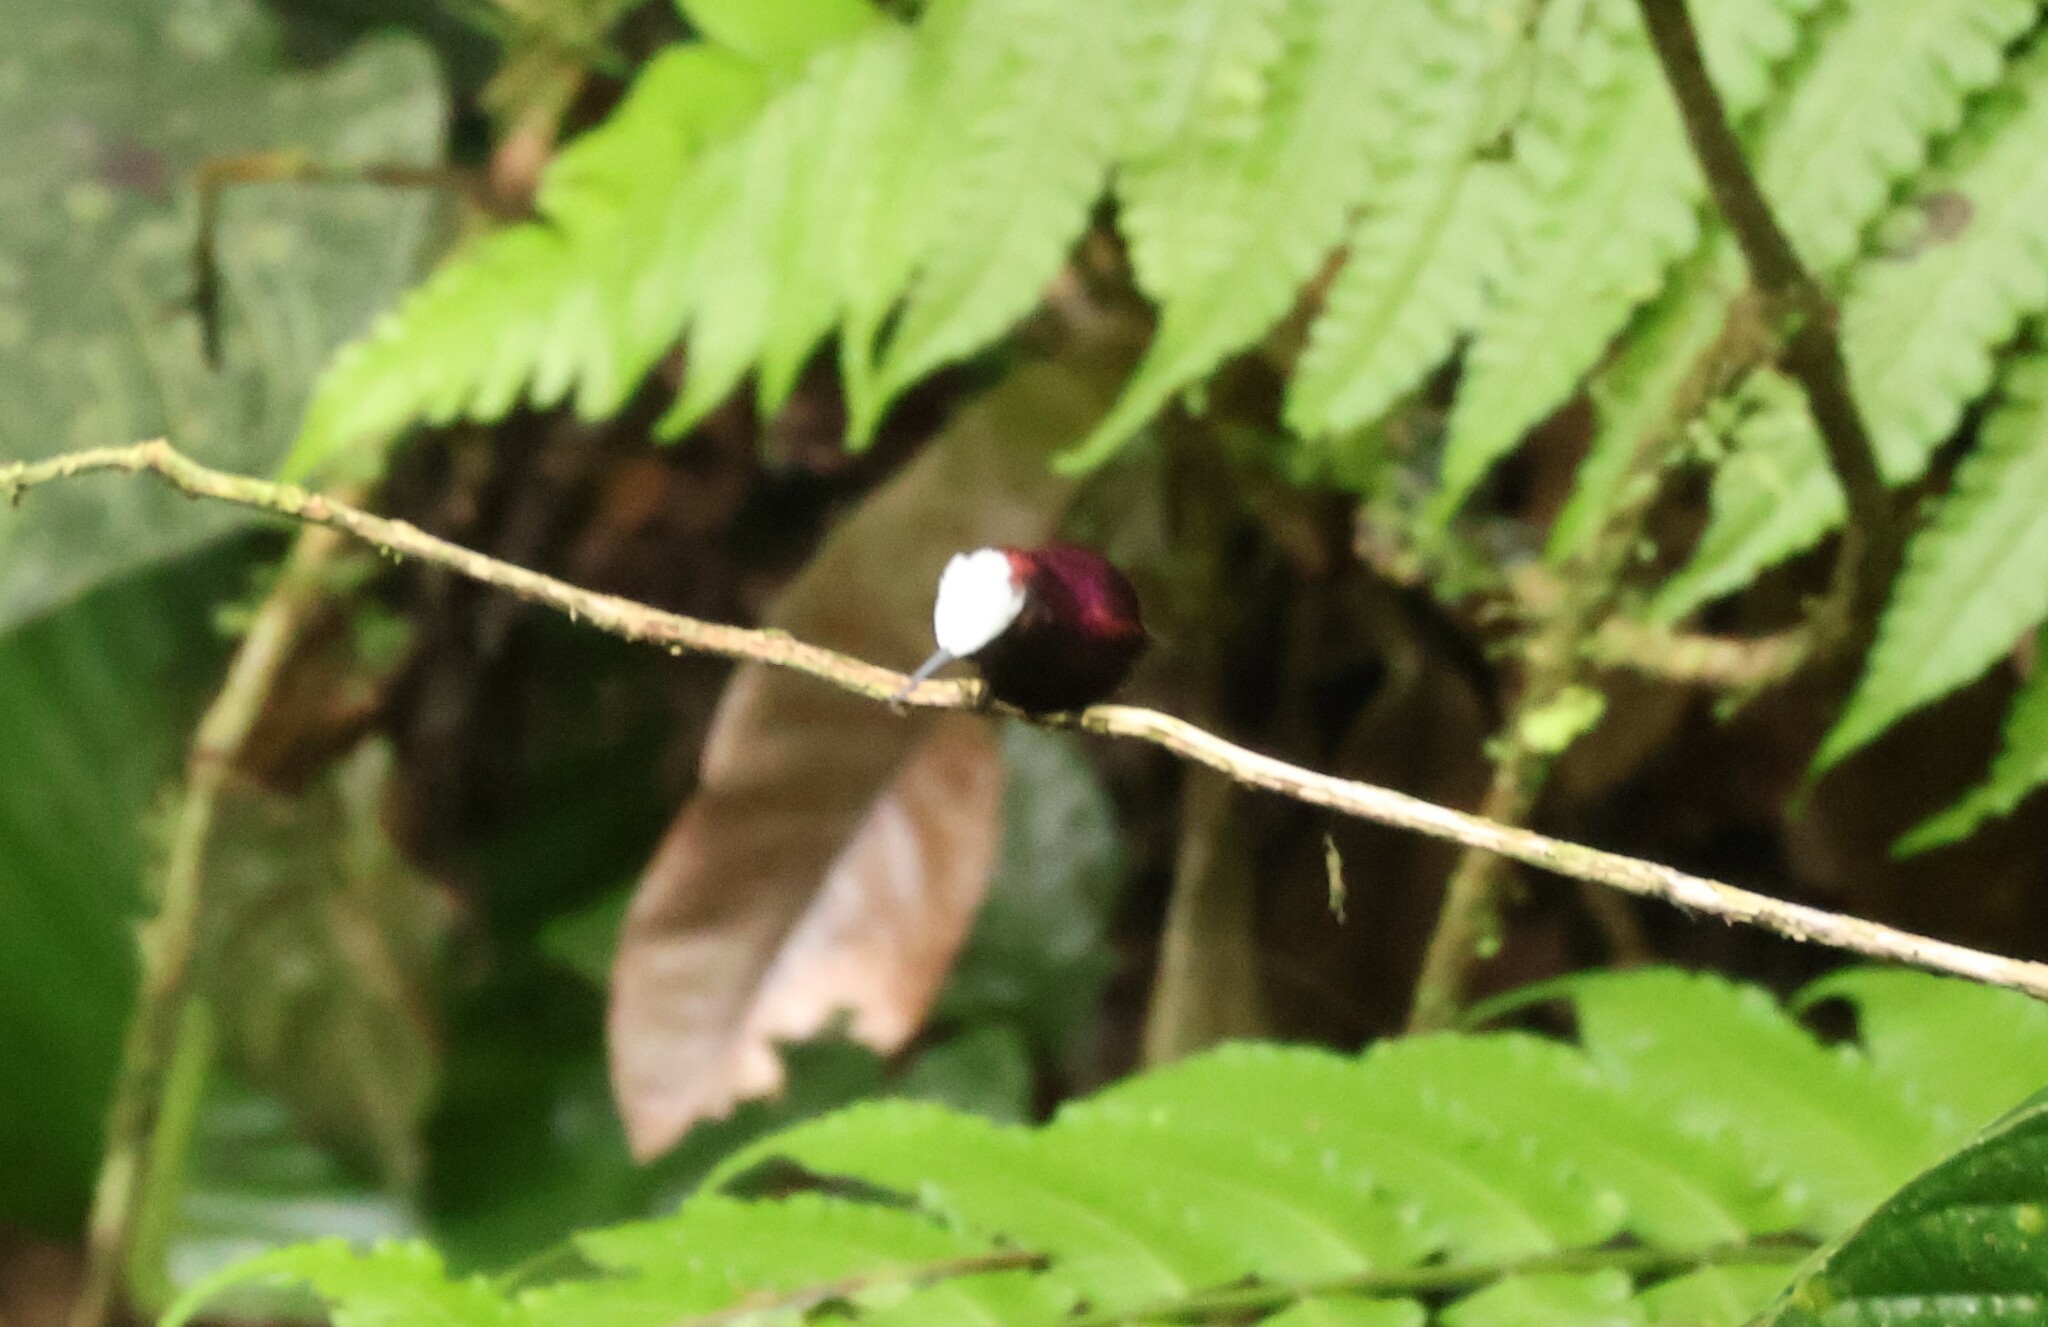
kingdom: Animalia
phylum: Chordata
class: Aves
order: Apodiformes
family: Trochilidae
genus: Microchera
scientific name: Microchera albocoronata
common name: Snowcap
